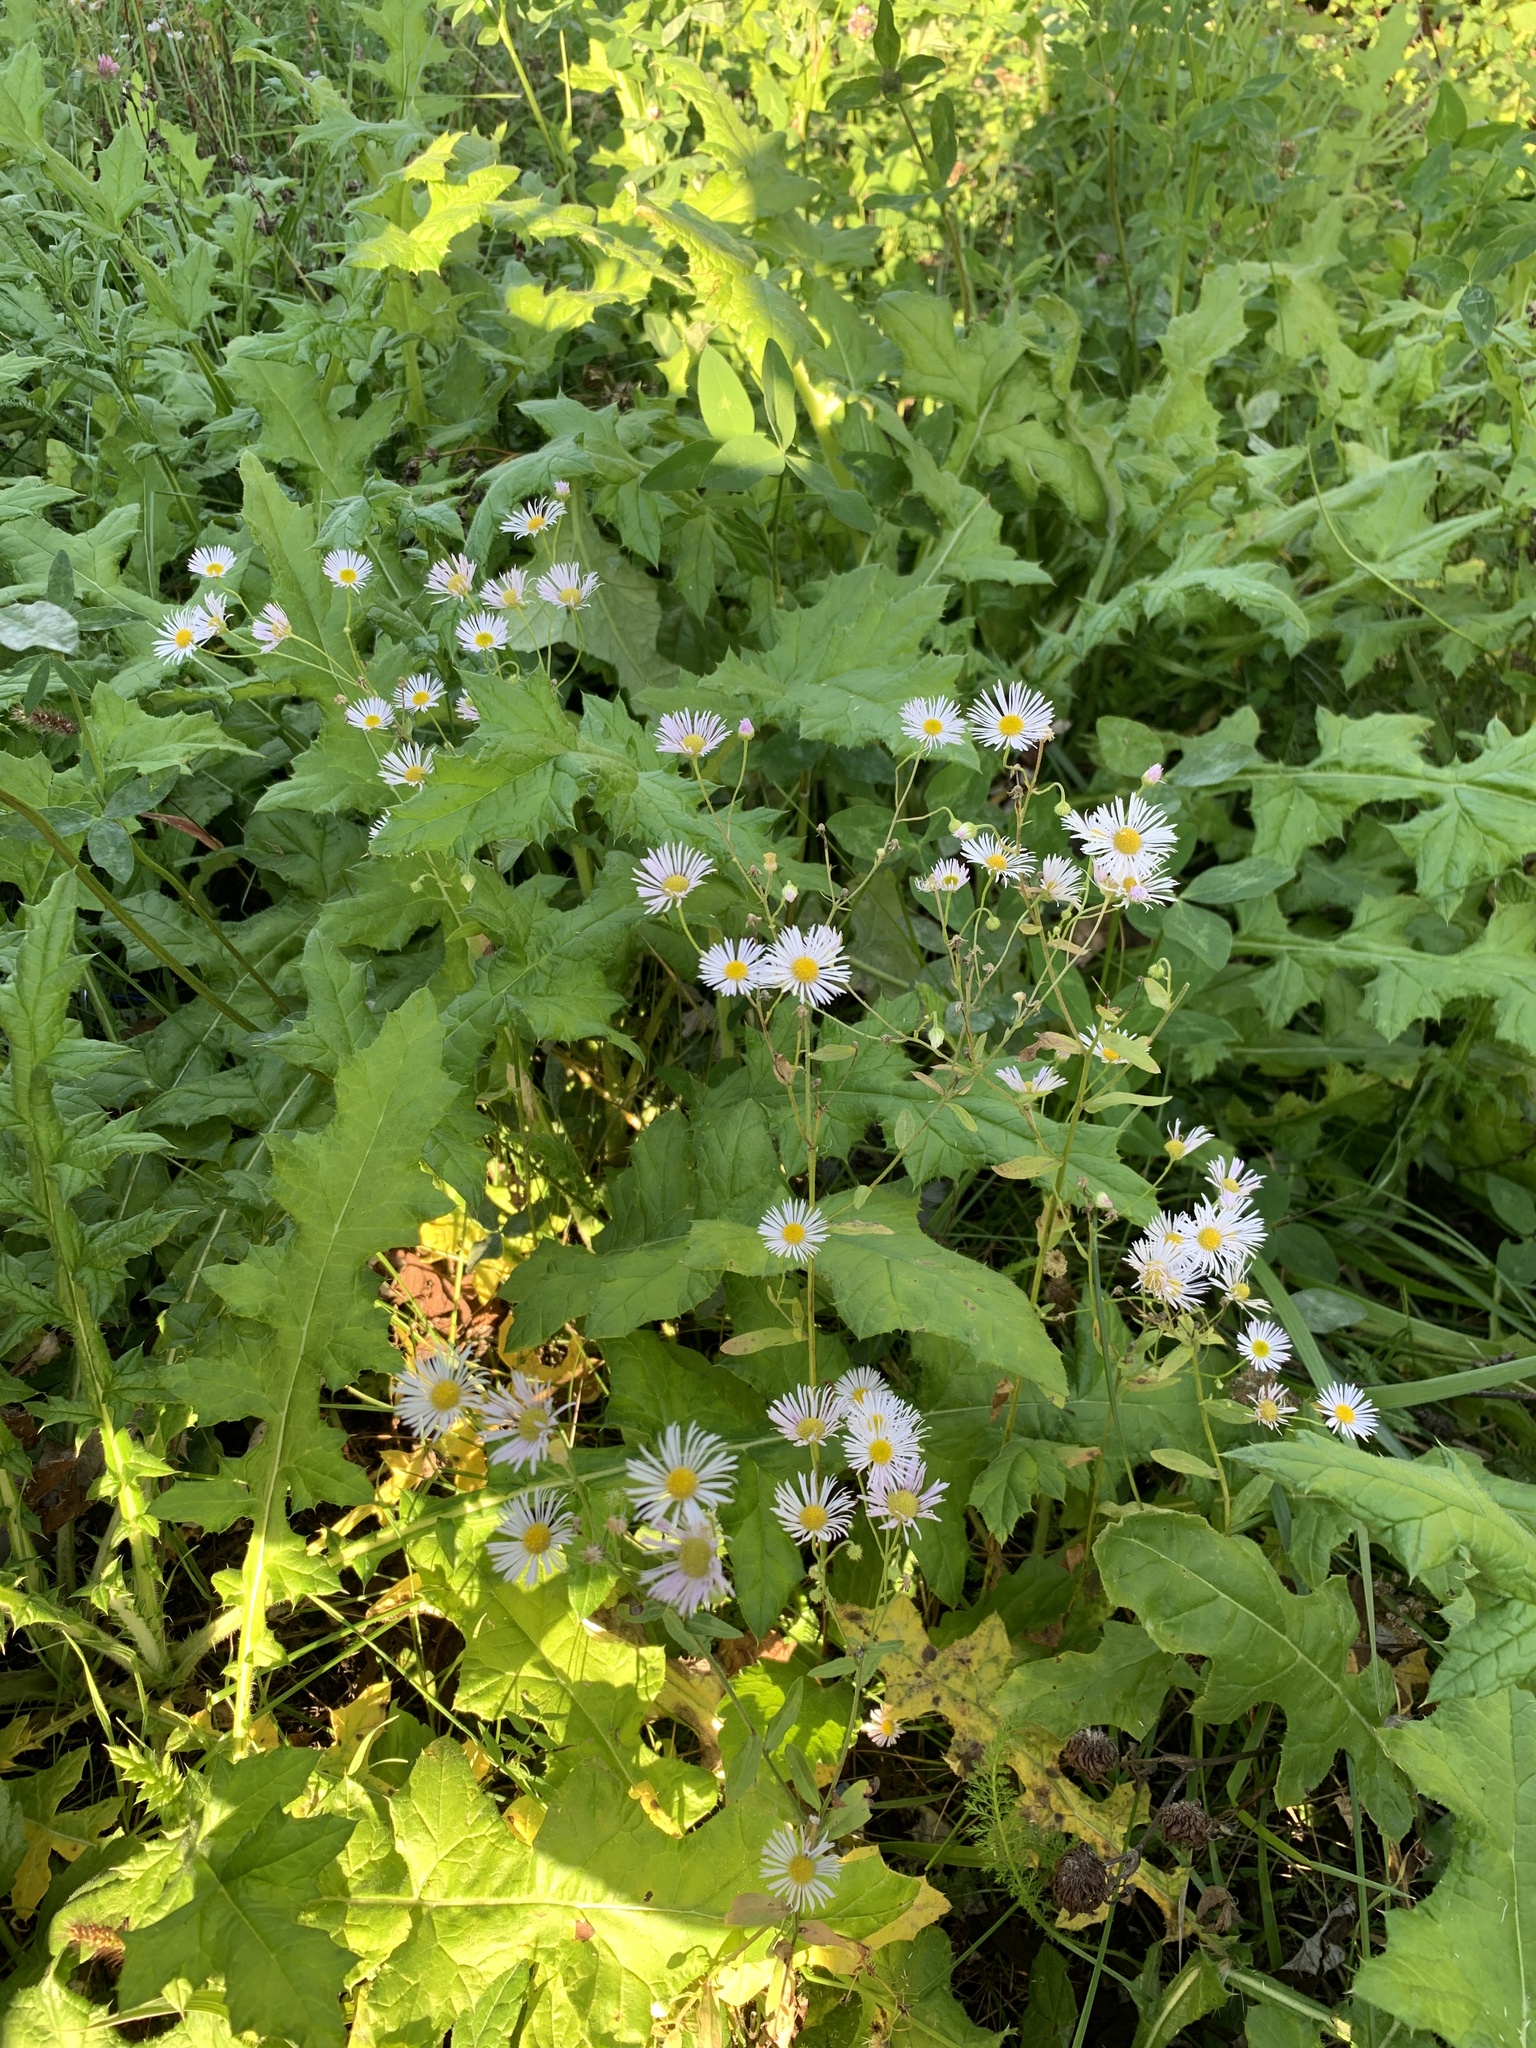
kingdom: Plantae
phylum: Tracheophyta
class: Magnoliopsida
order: Asterales
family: Asteraceae
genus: Erigeron
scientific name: Erigeron annuus
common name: Tall fleabane
